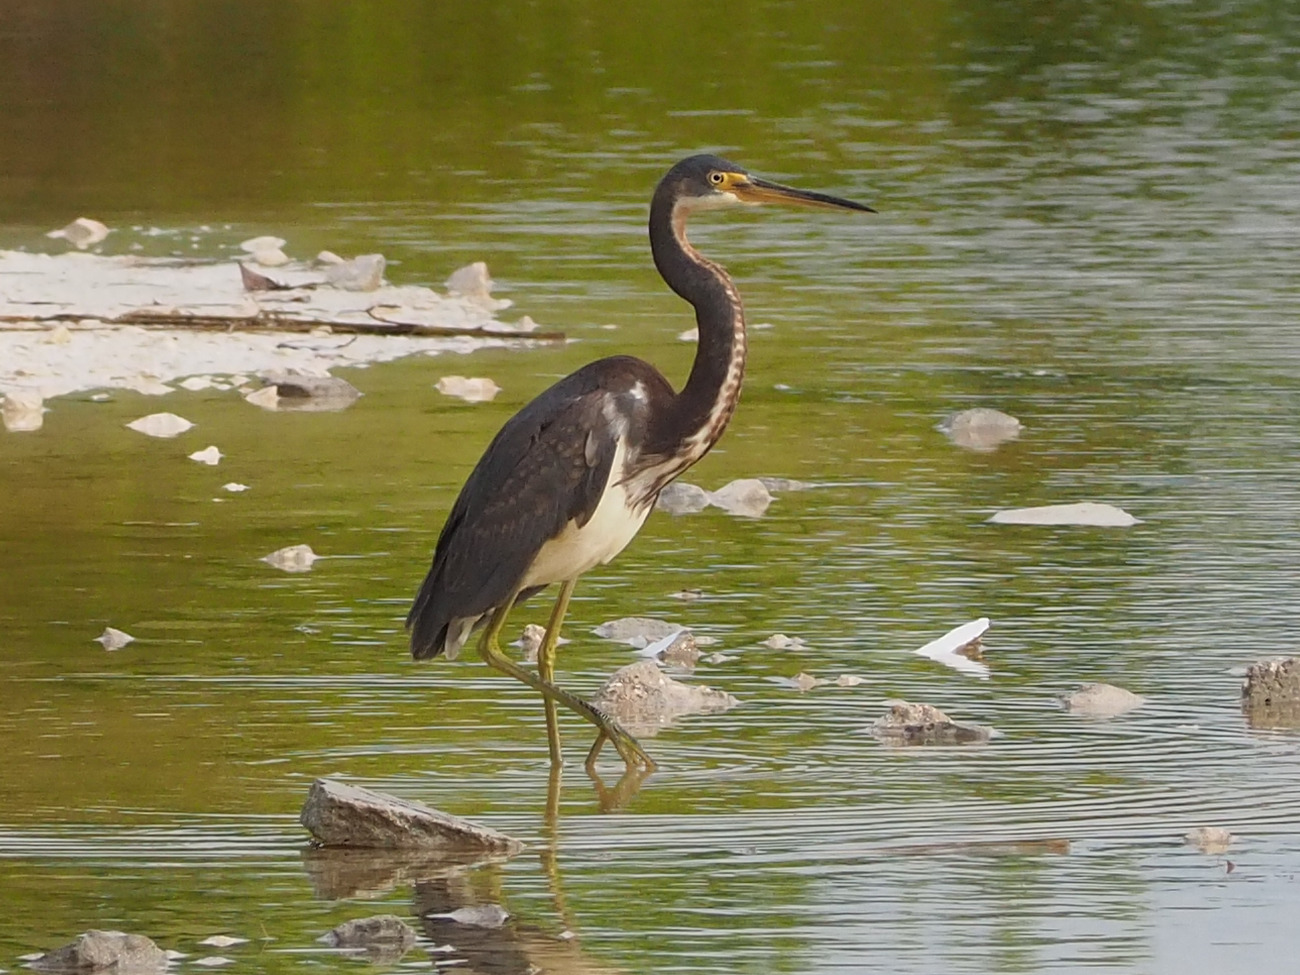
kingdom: Animalia
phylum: Chordata
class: Aves
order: Pelecaniformes
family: Ardeidae
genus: Egretta
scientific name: Egretta tricolor
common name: Tricolored heron
